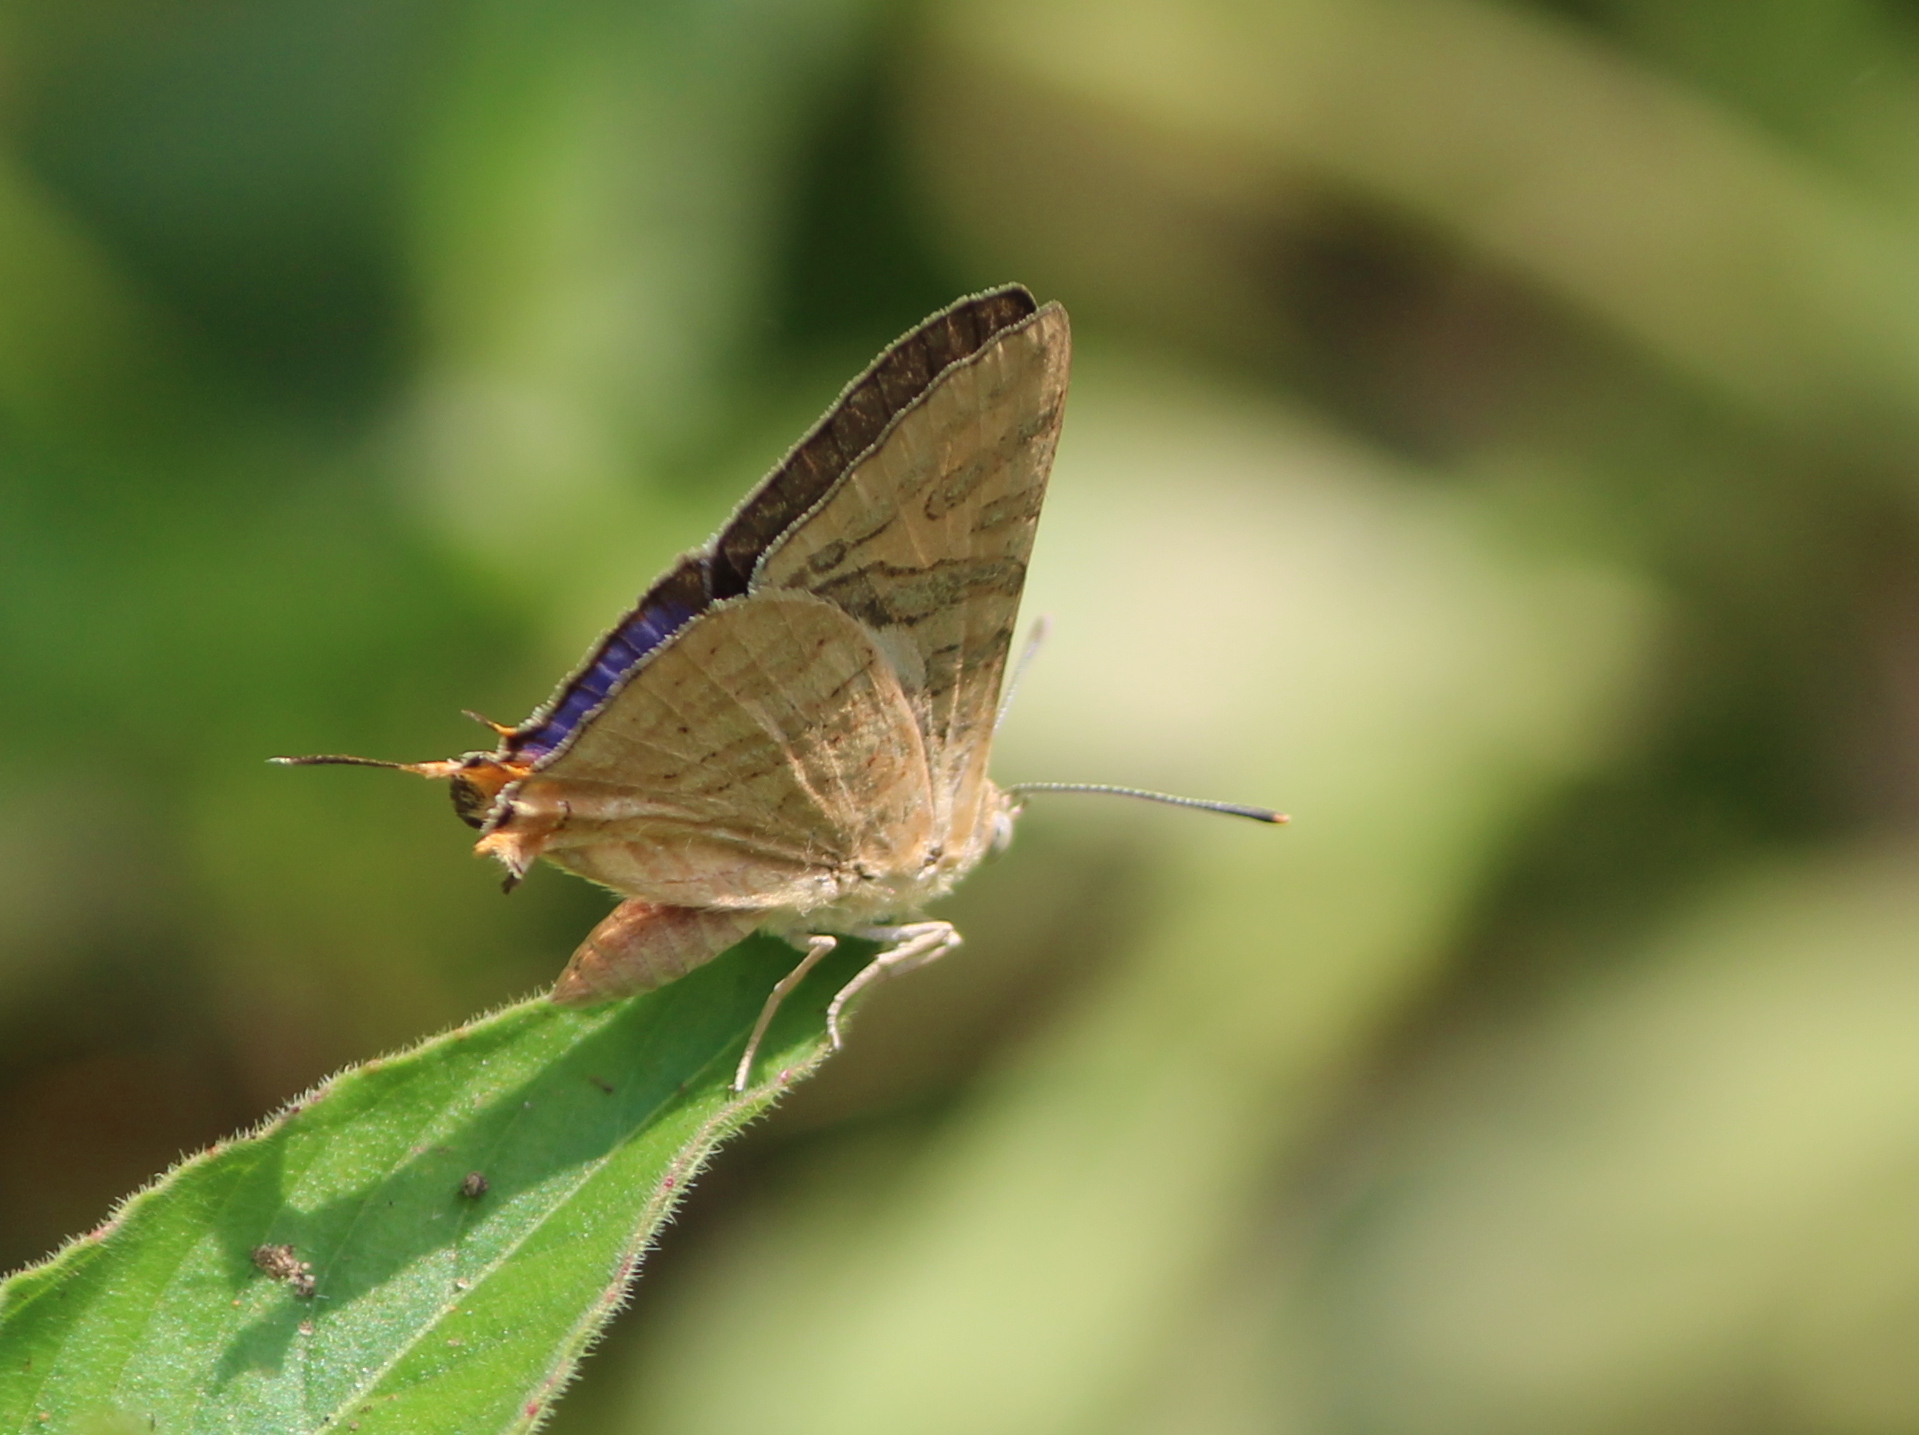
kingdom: Animalia
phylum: Arthropoda
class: Insecta
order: Lepidoptera
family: Lycaenidae
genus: Cigaritis
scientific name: Cigaritis
